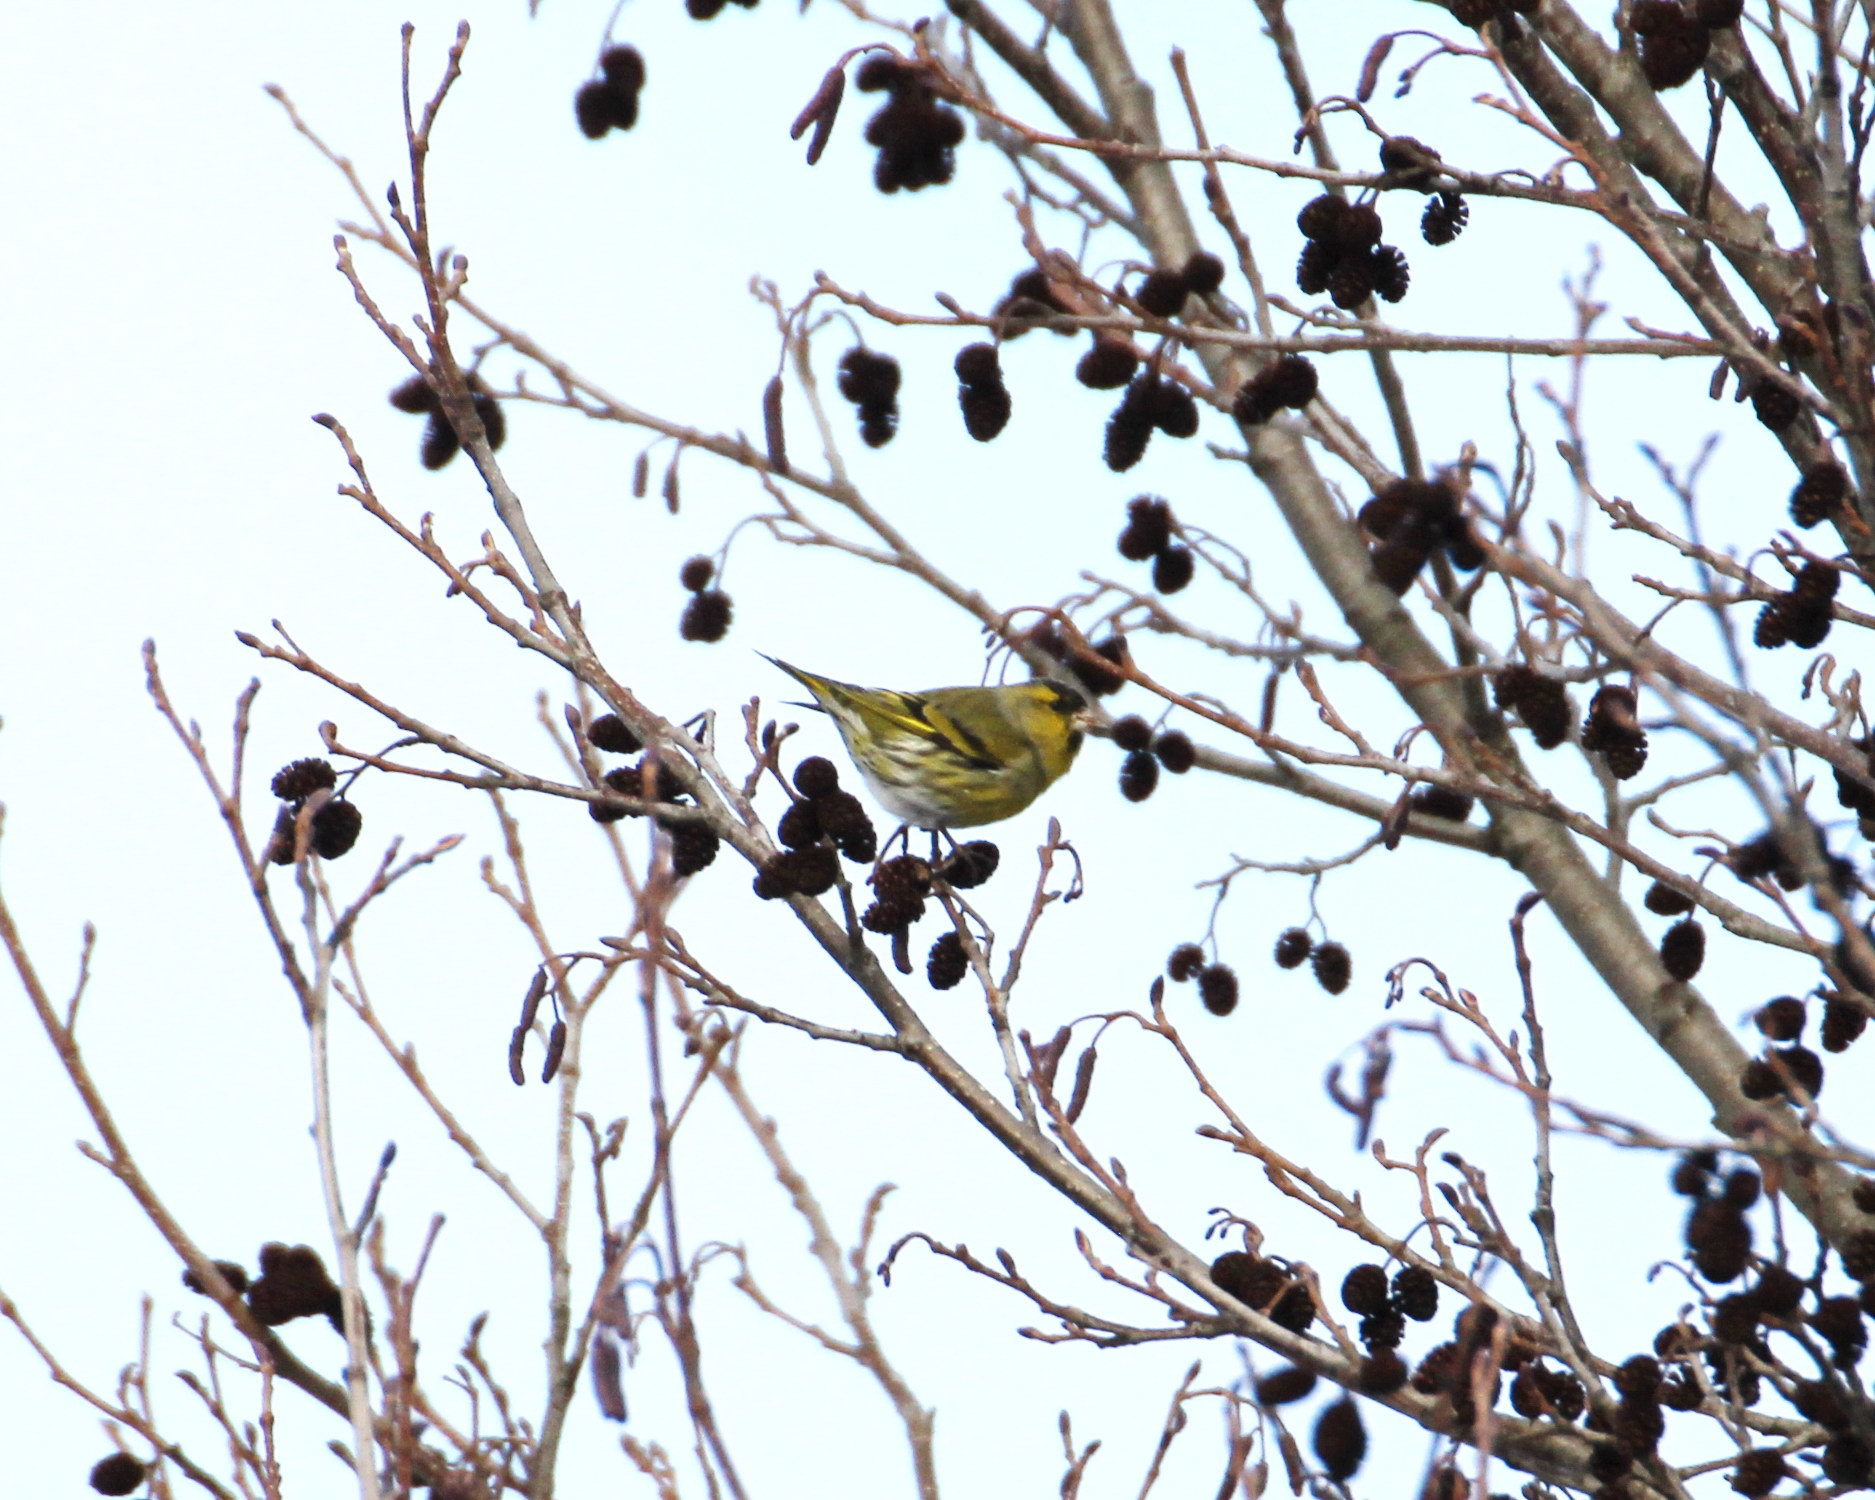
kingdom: Animalia
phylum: Chordata
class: Aves
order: Passeriformes
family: Fringillidae
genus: Spinus
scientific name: Spinus spinus
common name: Eurasian siskin
